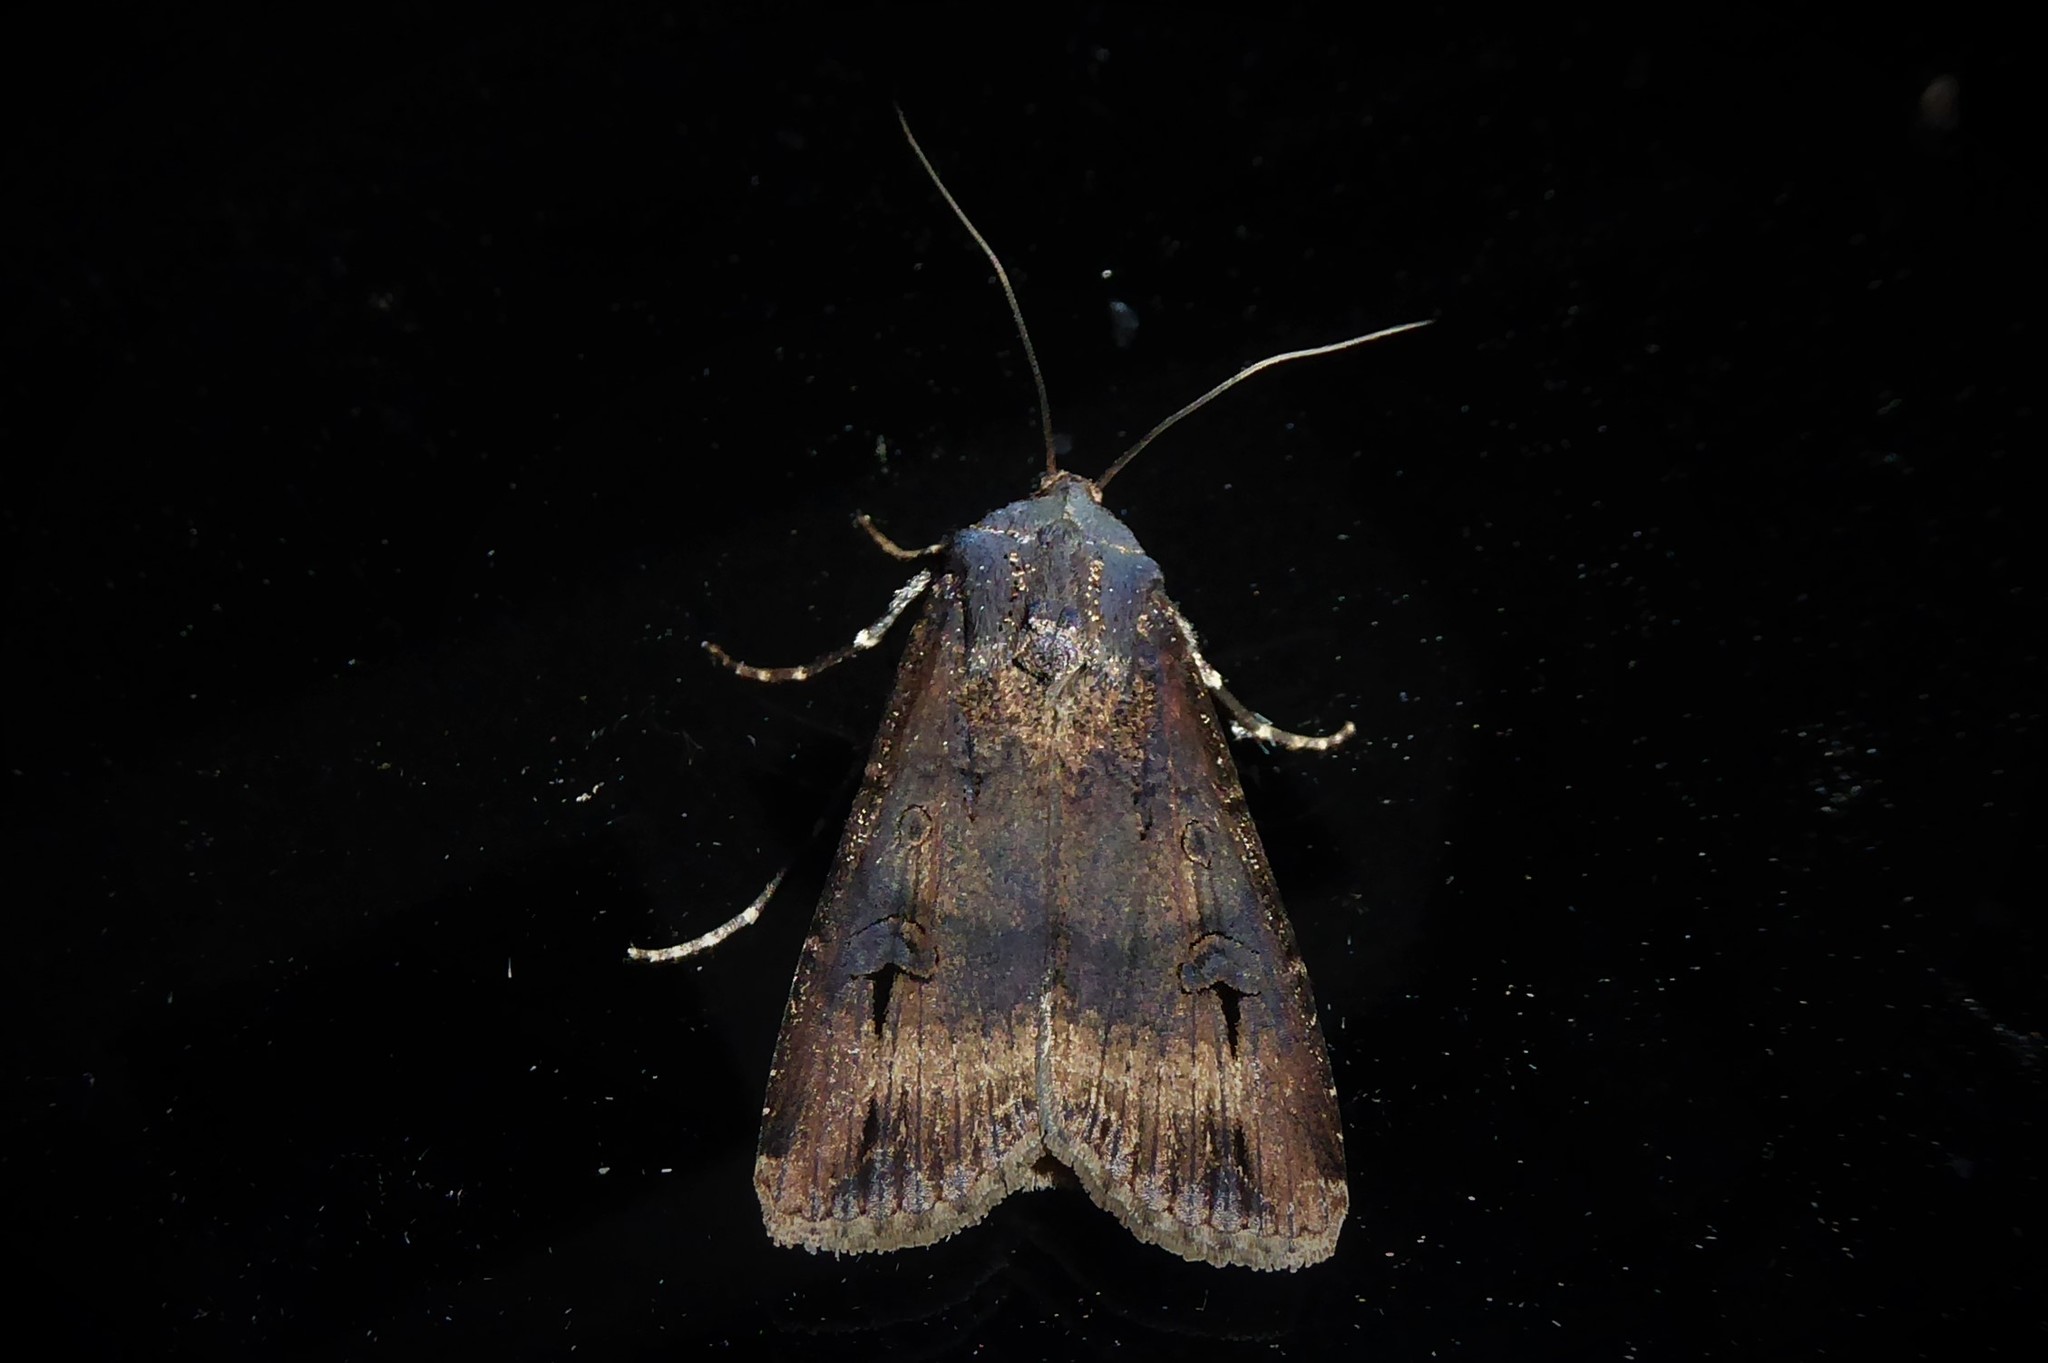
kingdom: Animalia
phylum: Arthropoda
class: Insecta
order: Lepidoptera
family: Noctuidae
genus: Agrotis
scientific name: Agrotis ipsilon
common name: Dark sword-grass
